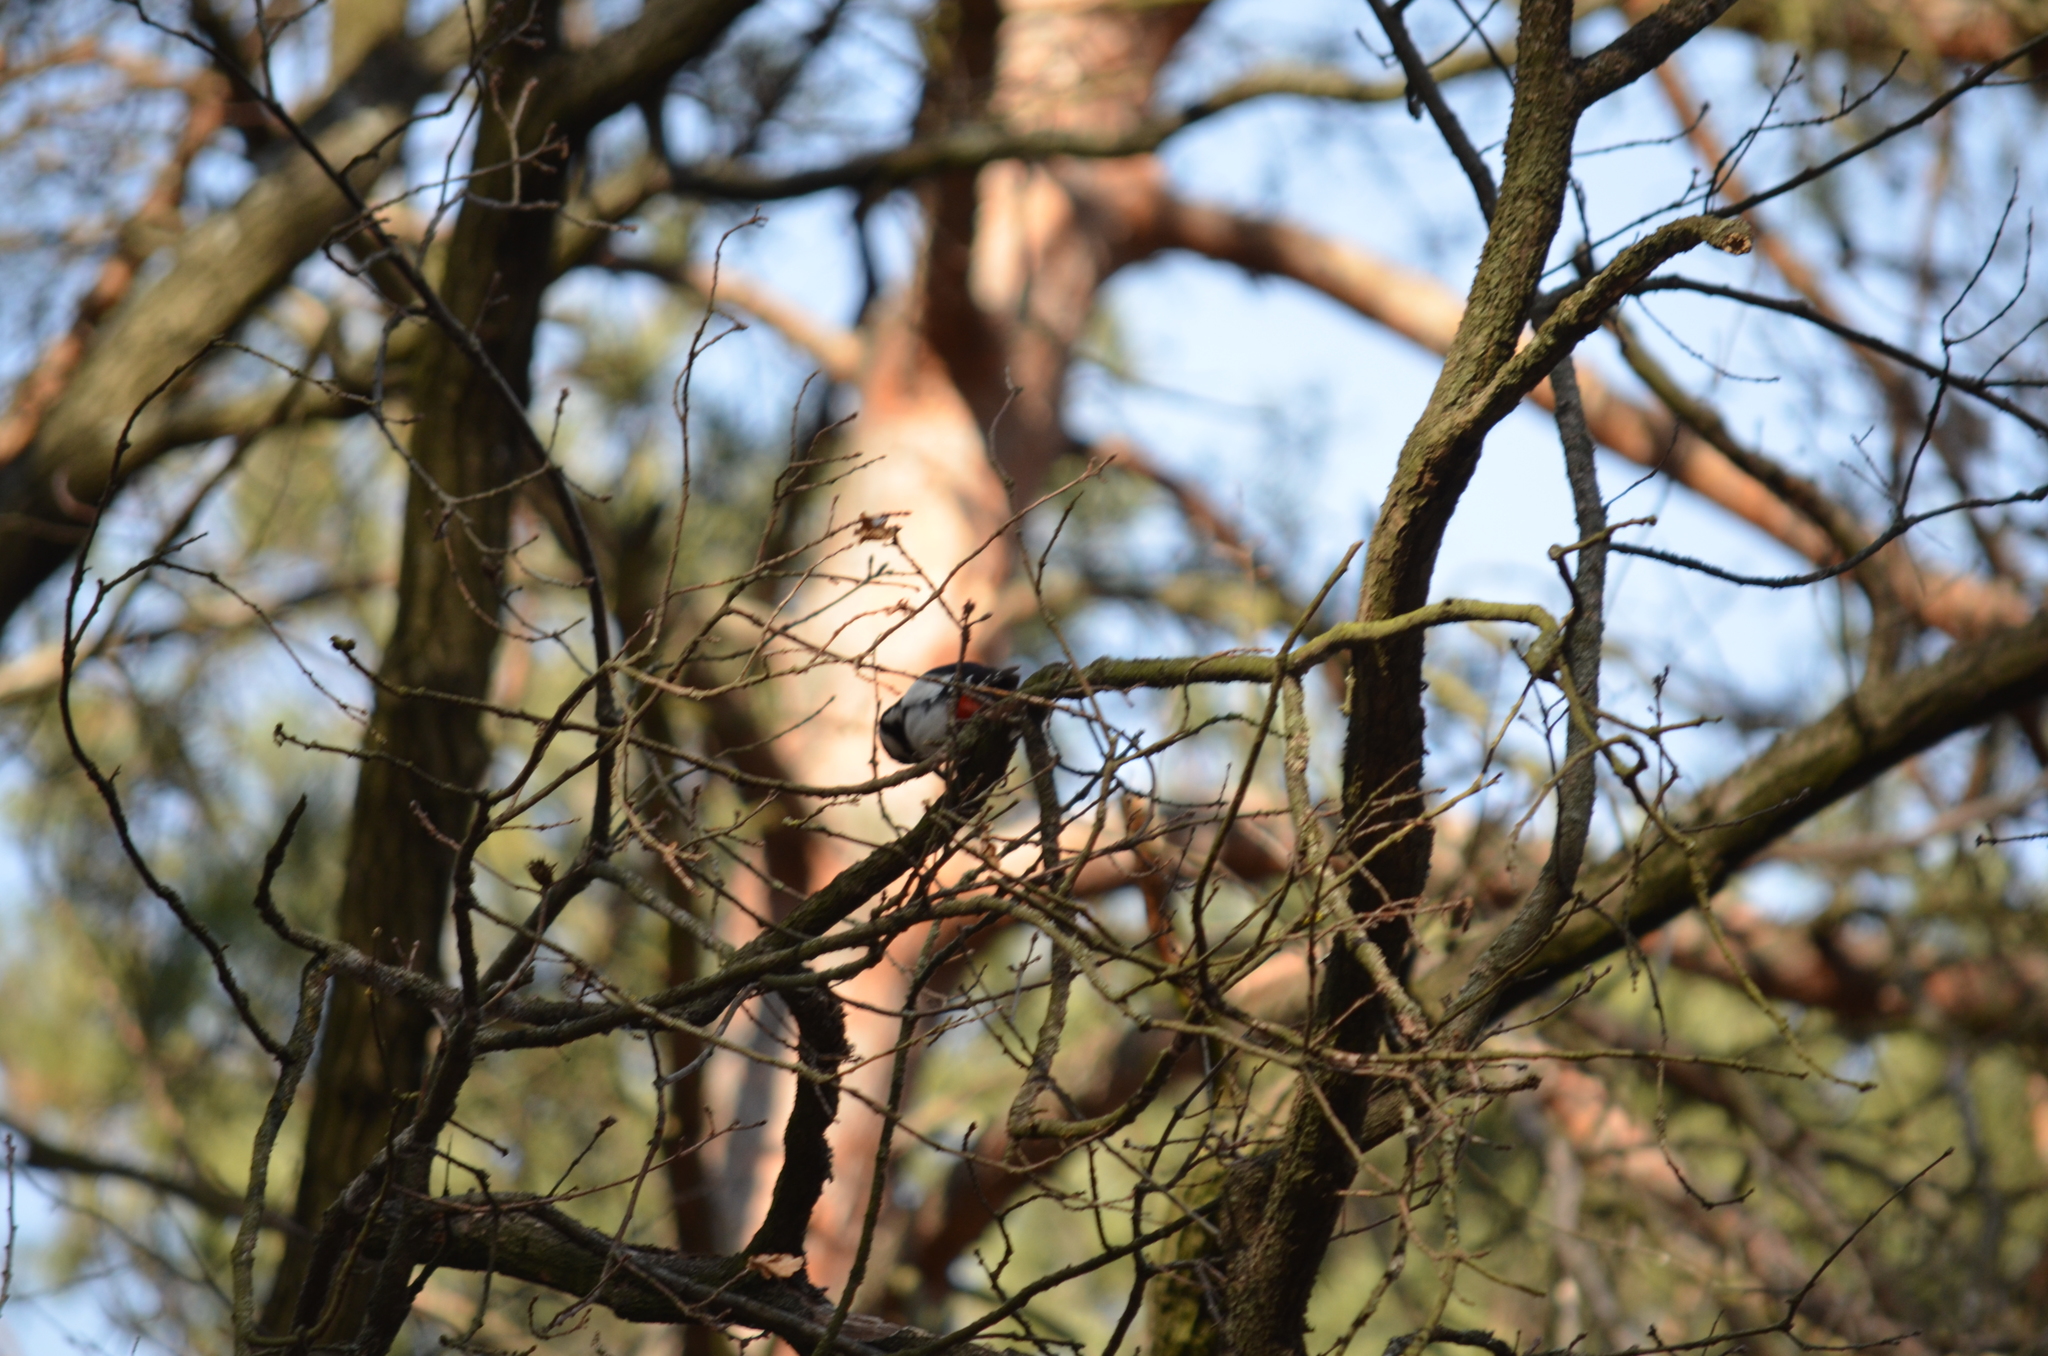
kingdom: Animalia
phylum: Chordata
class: Aves
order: Piciformes
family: Picidae
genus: Dendrocopos
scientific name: Dendrocopos major
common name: Great spotted woodpecker
